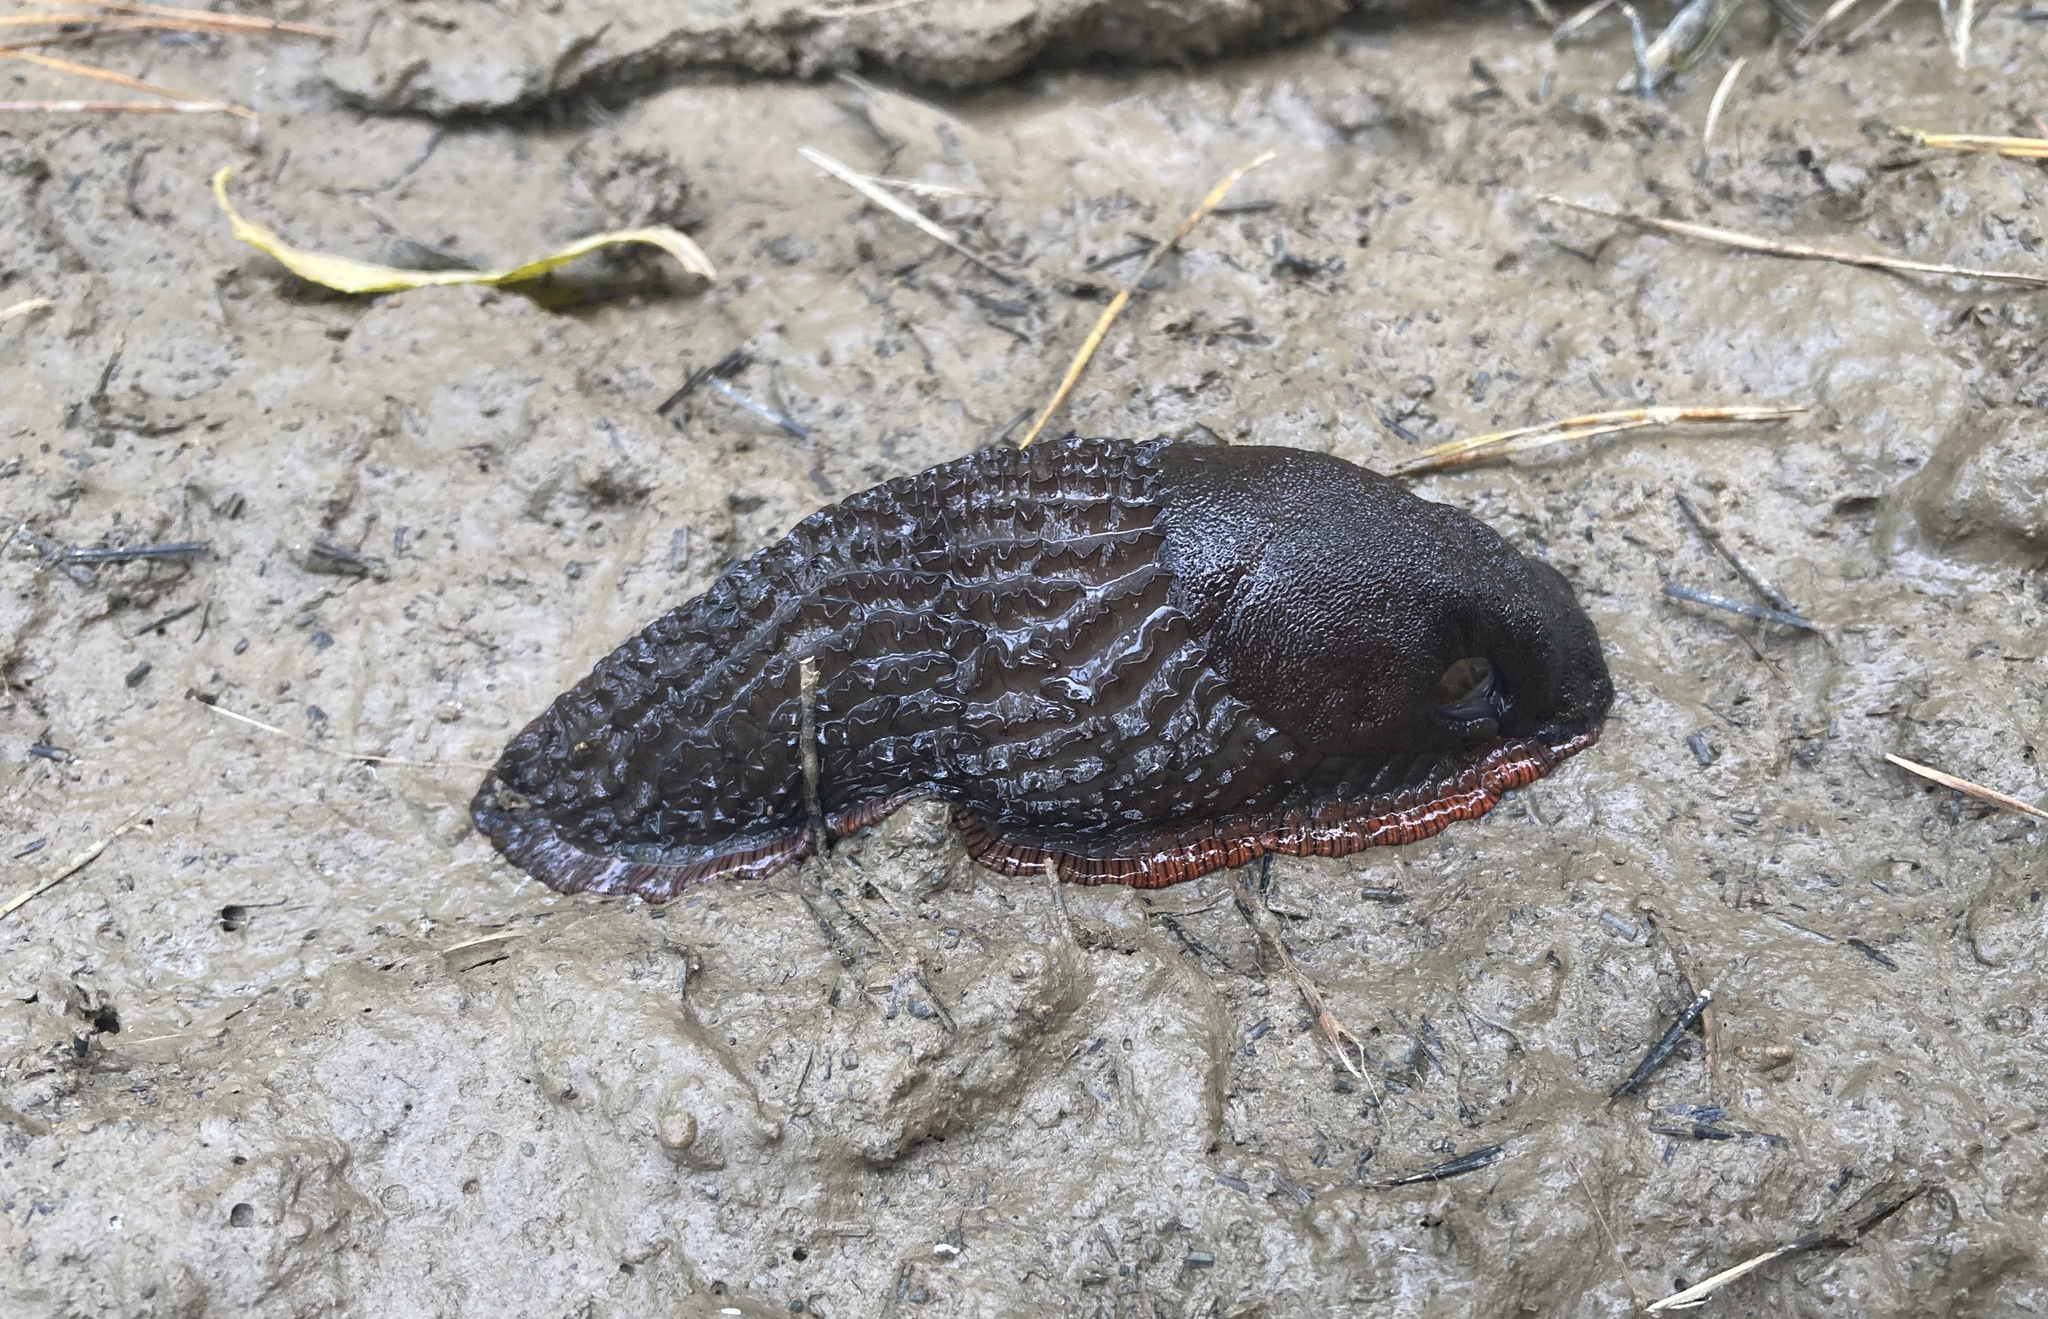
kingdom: Animalia
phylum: Mollusca
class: Gastropoda
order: Stylommatophora
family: Arionidae
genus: Arion
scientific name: Arion ater
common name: Black arion
